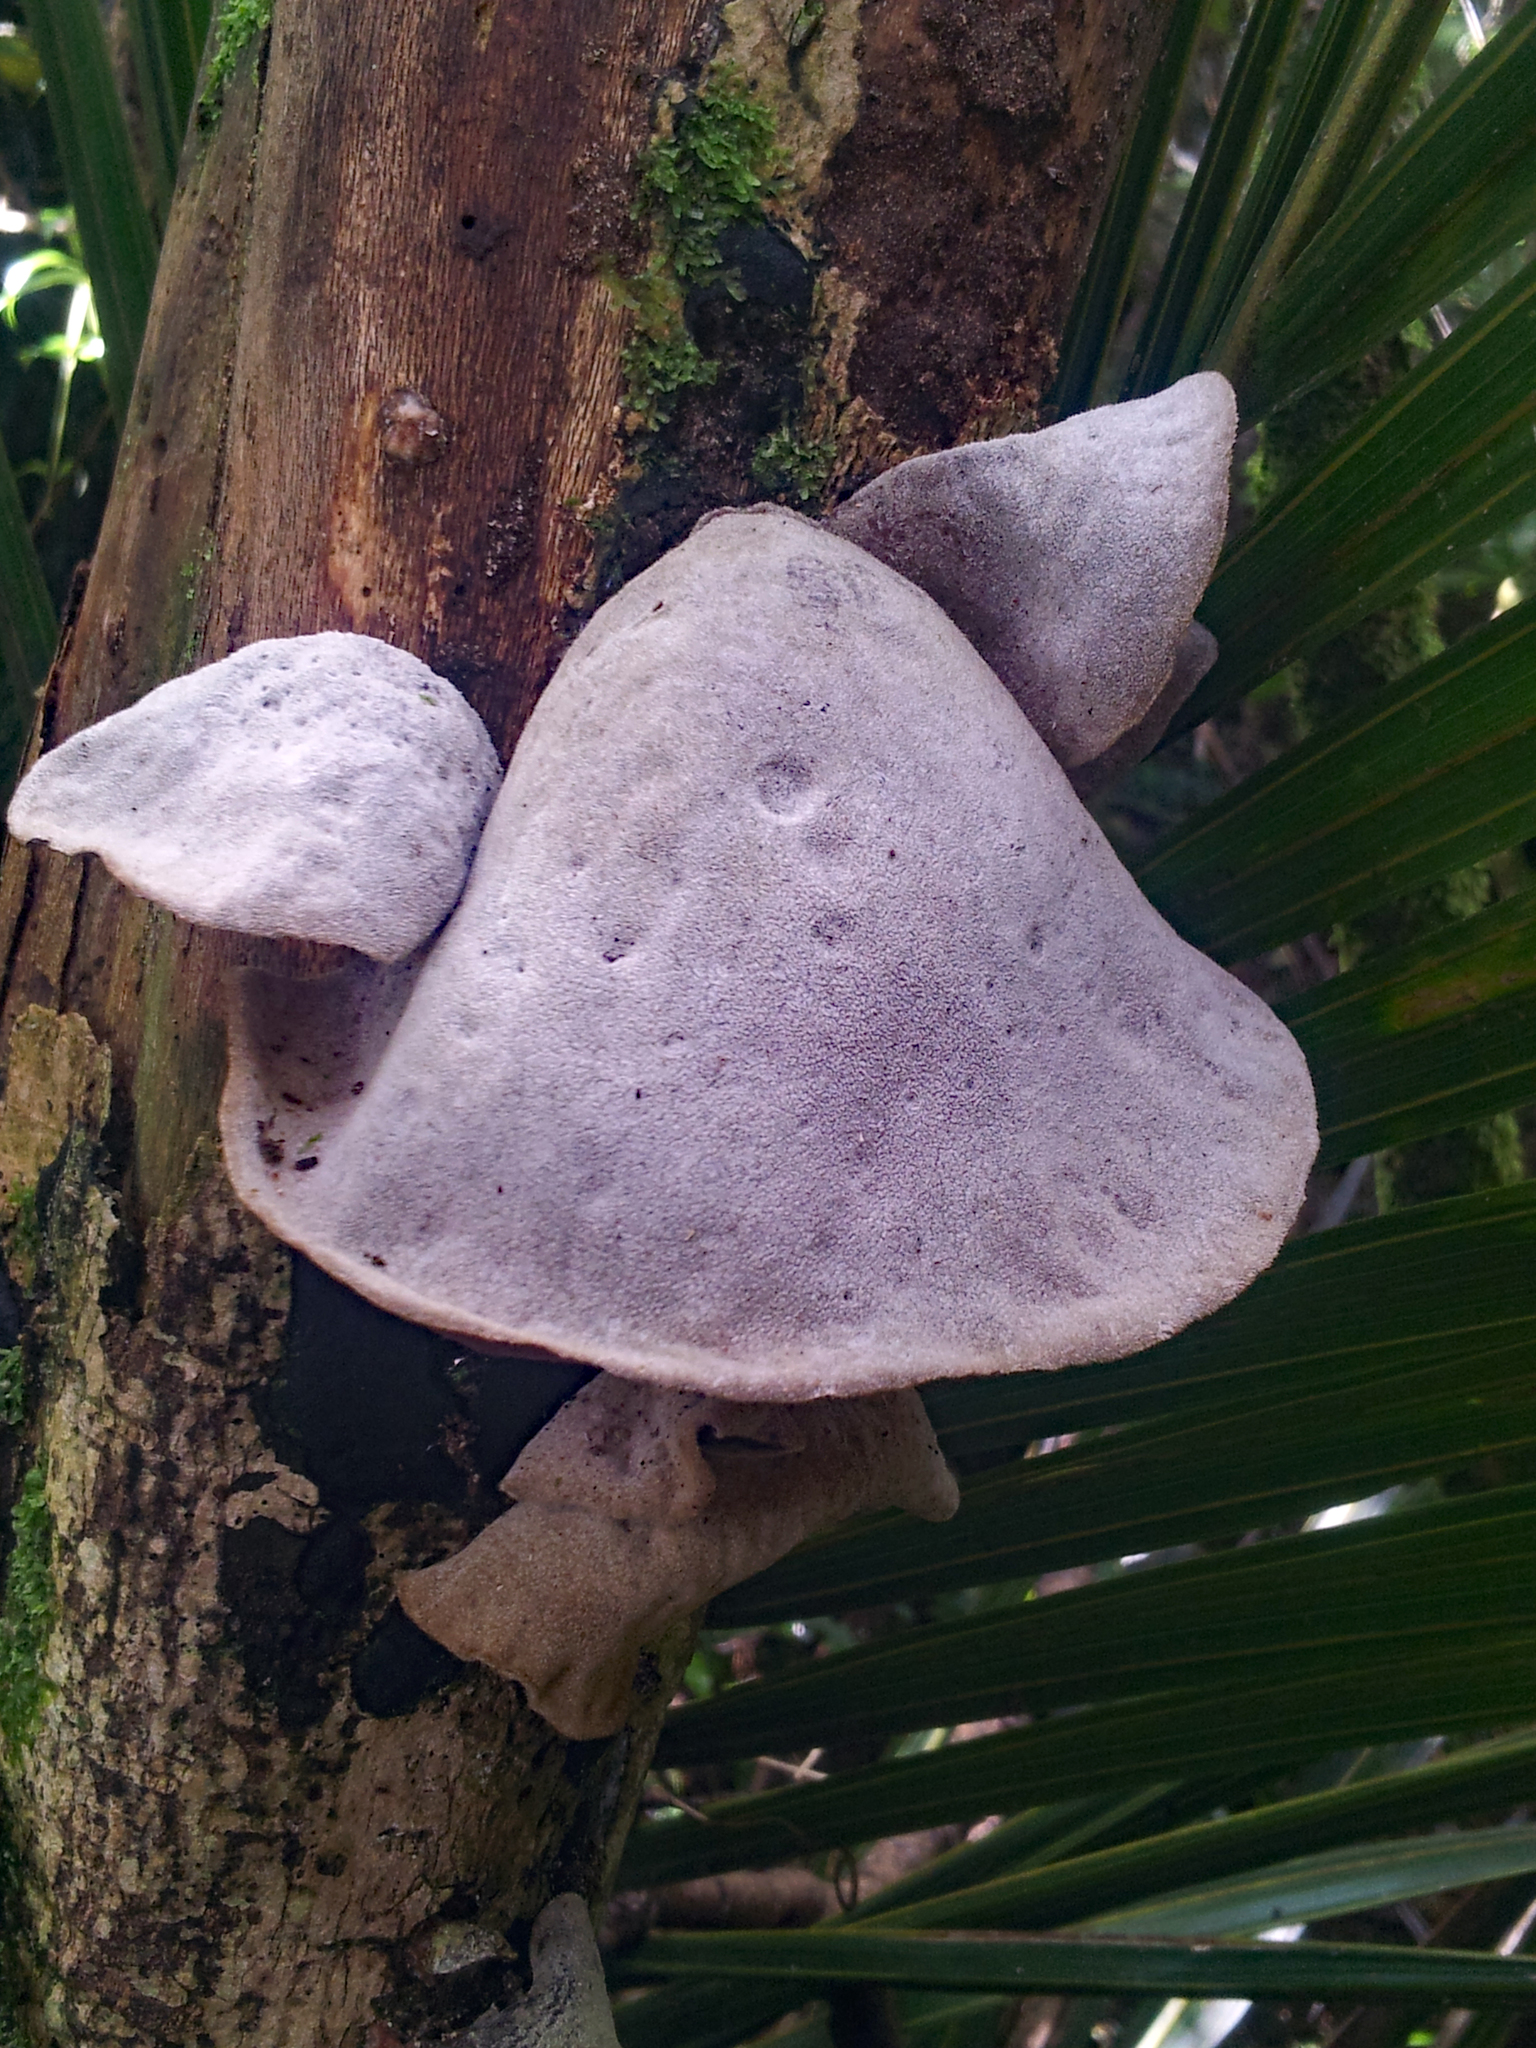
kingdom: Fungi
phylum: Basidiomycota
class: Agaricomycetes
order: Auriculariales
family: Auriculariaceae
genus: Auricularia
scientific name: Auricularia cornea
